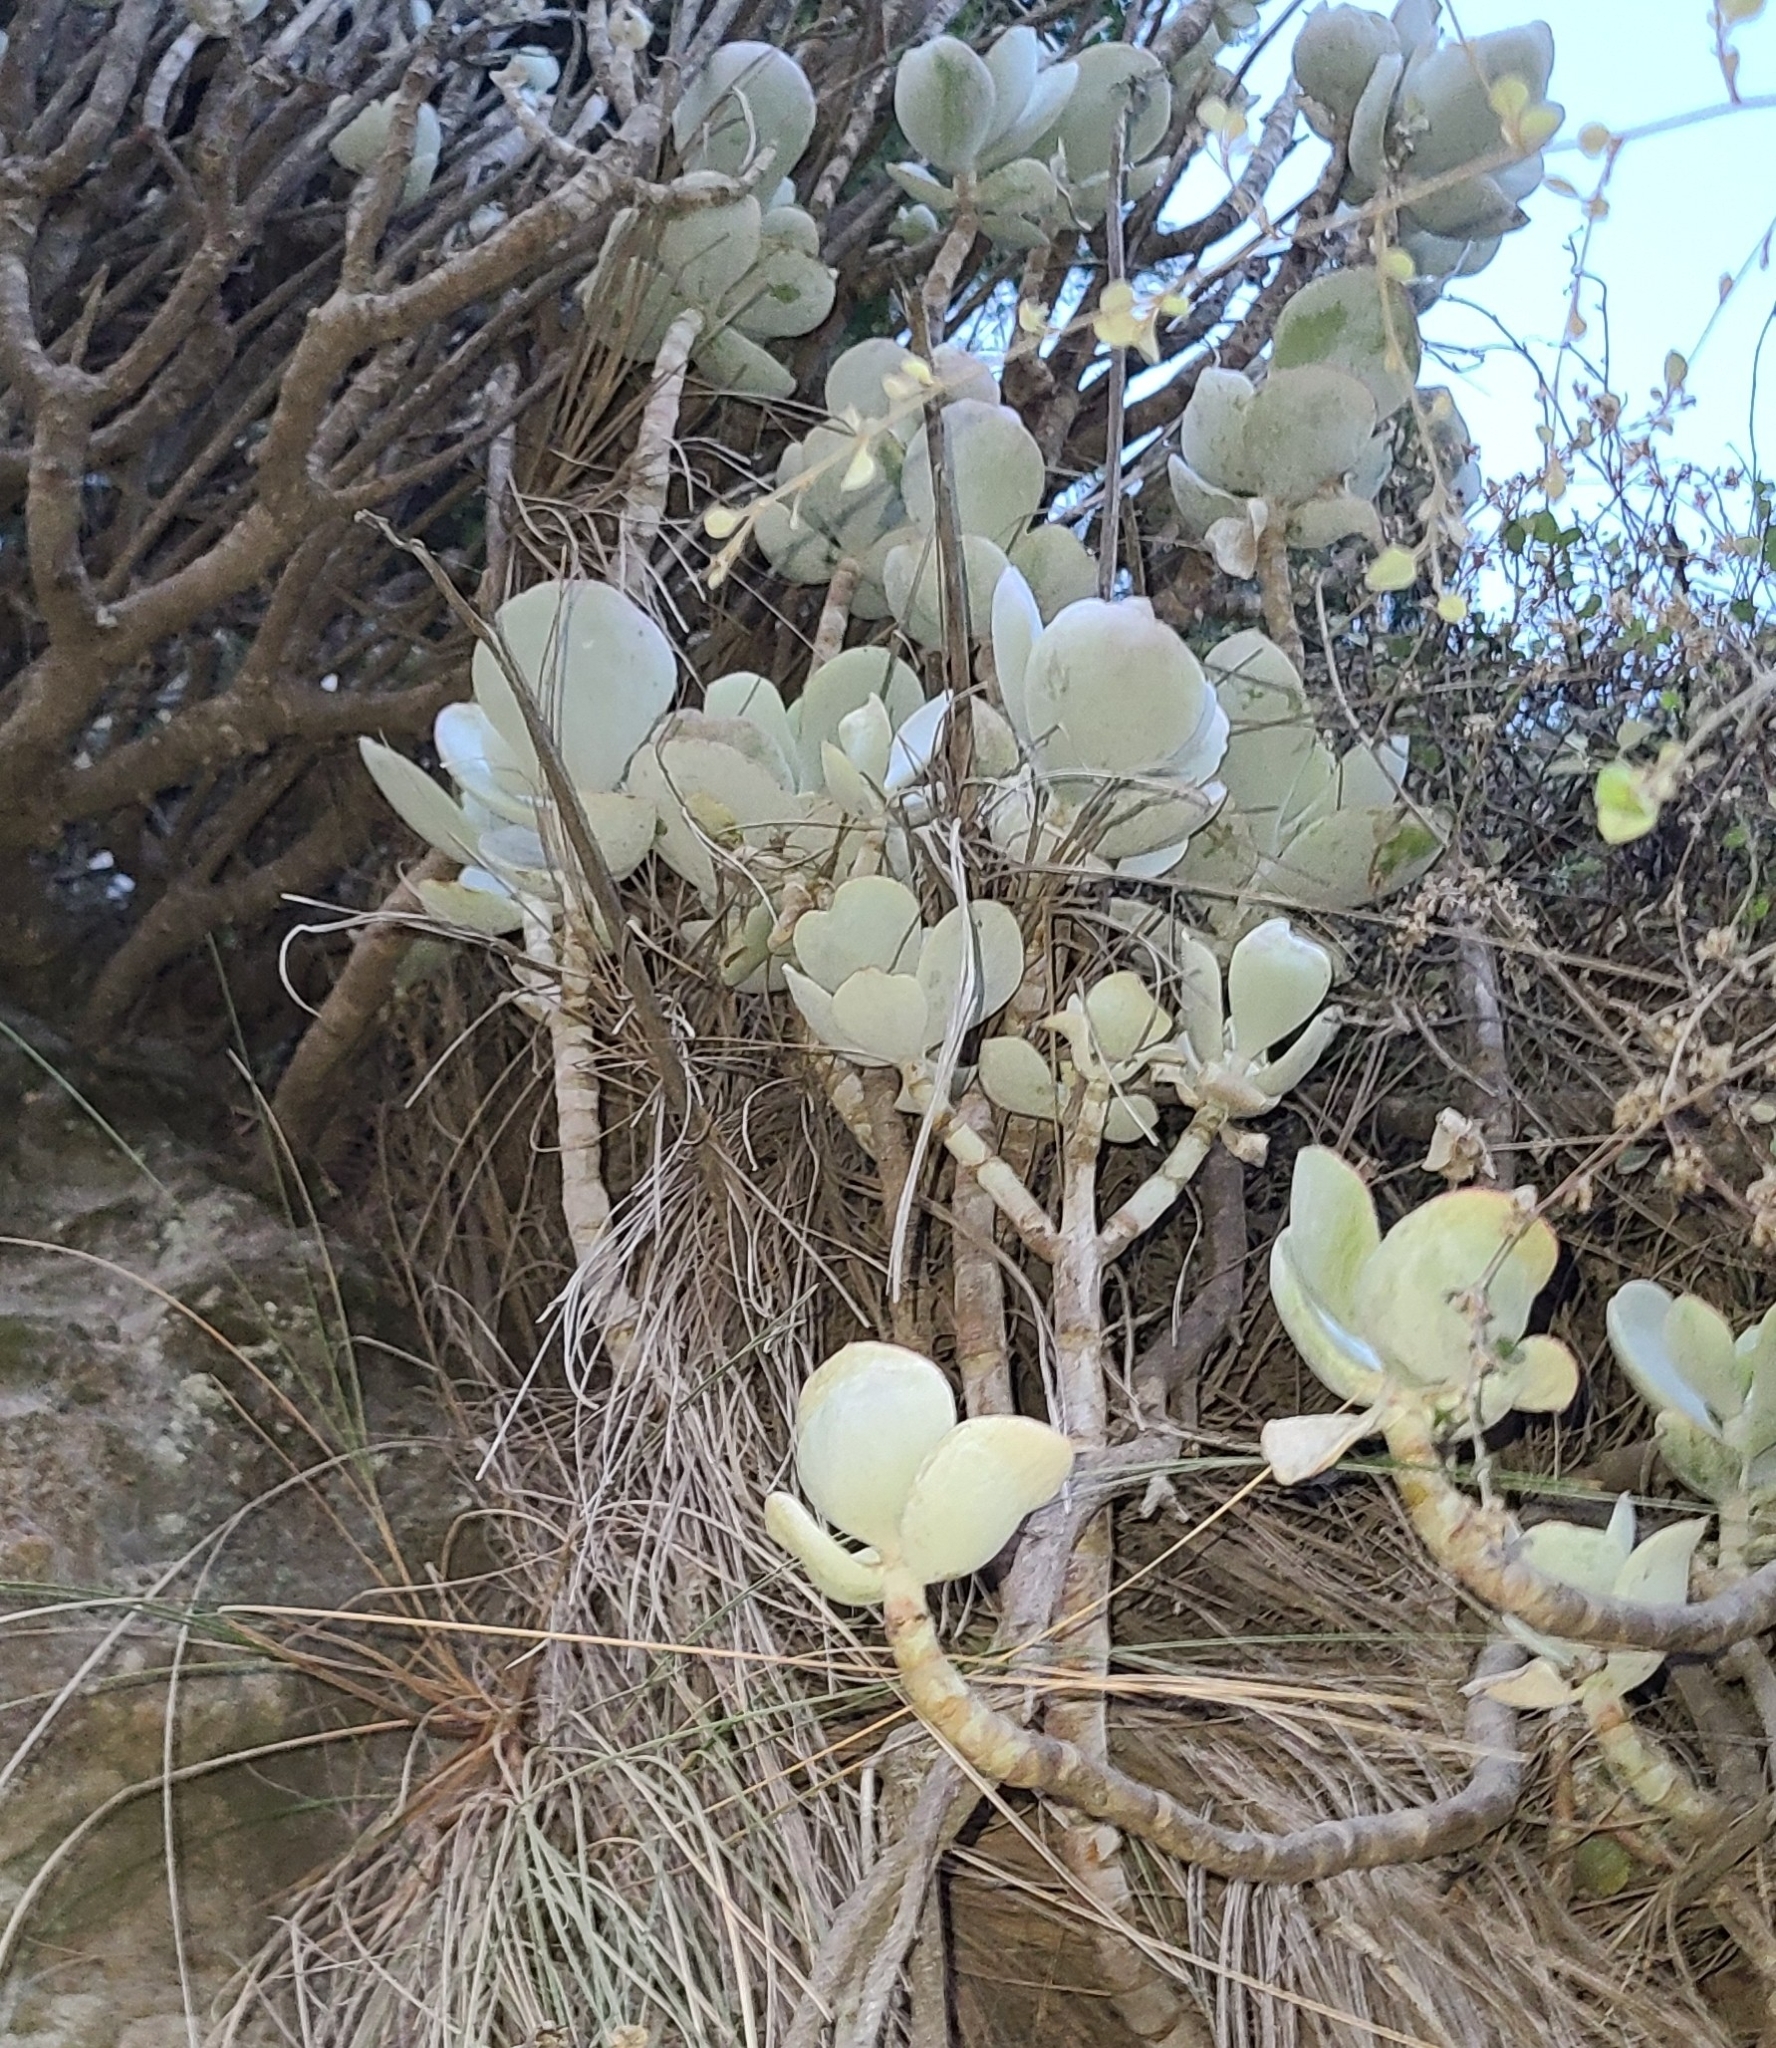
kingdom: Plantae
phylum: Tracheophyta
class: Magnoliopsida
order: Saxifragales
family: Crassulaceae
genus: Cotyledon
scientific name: Cotyledon orbiculata
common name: Pig's ear
